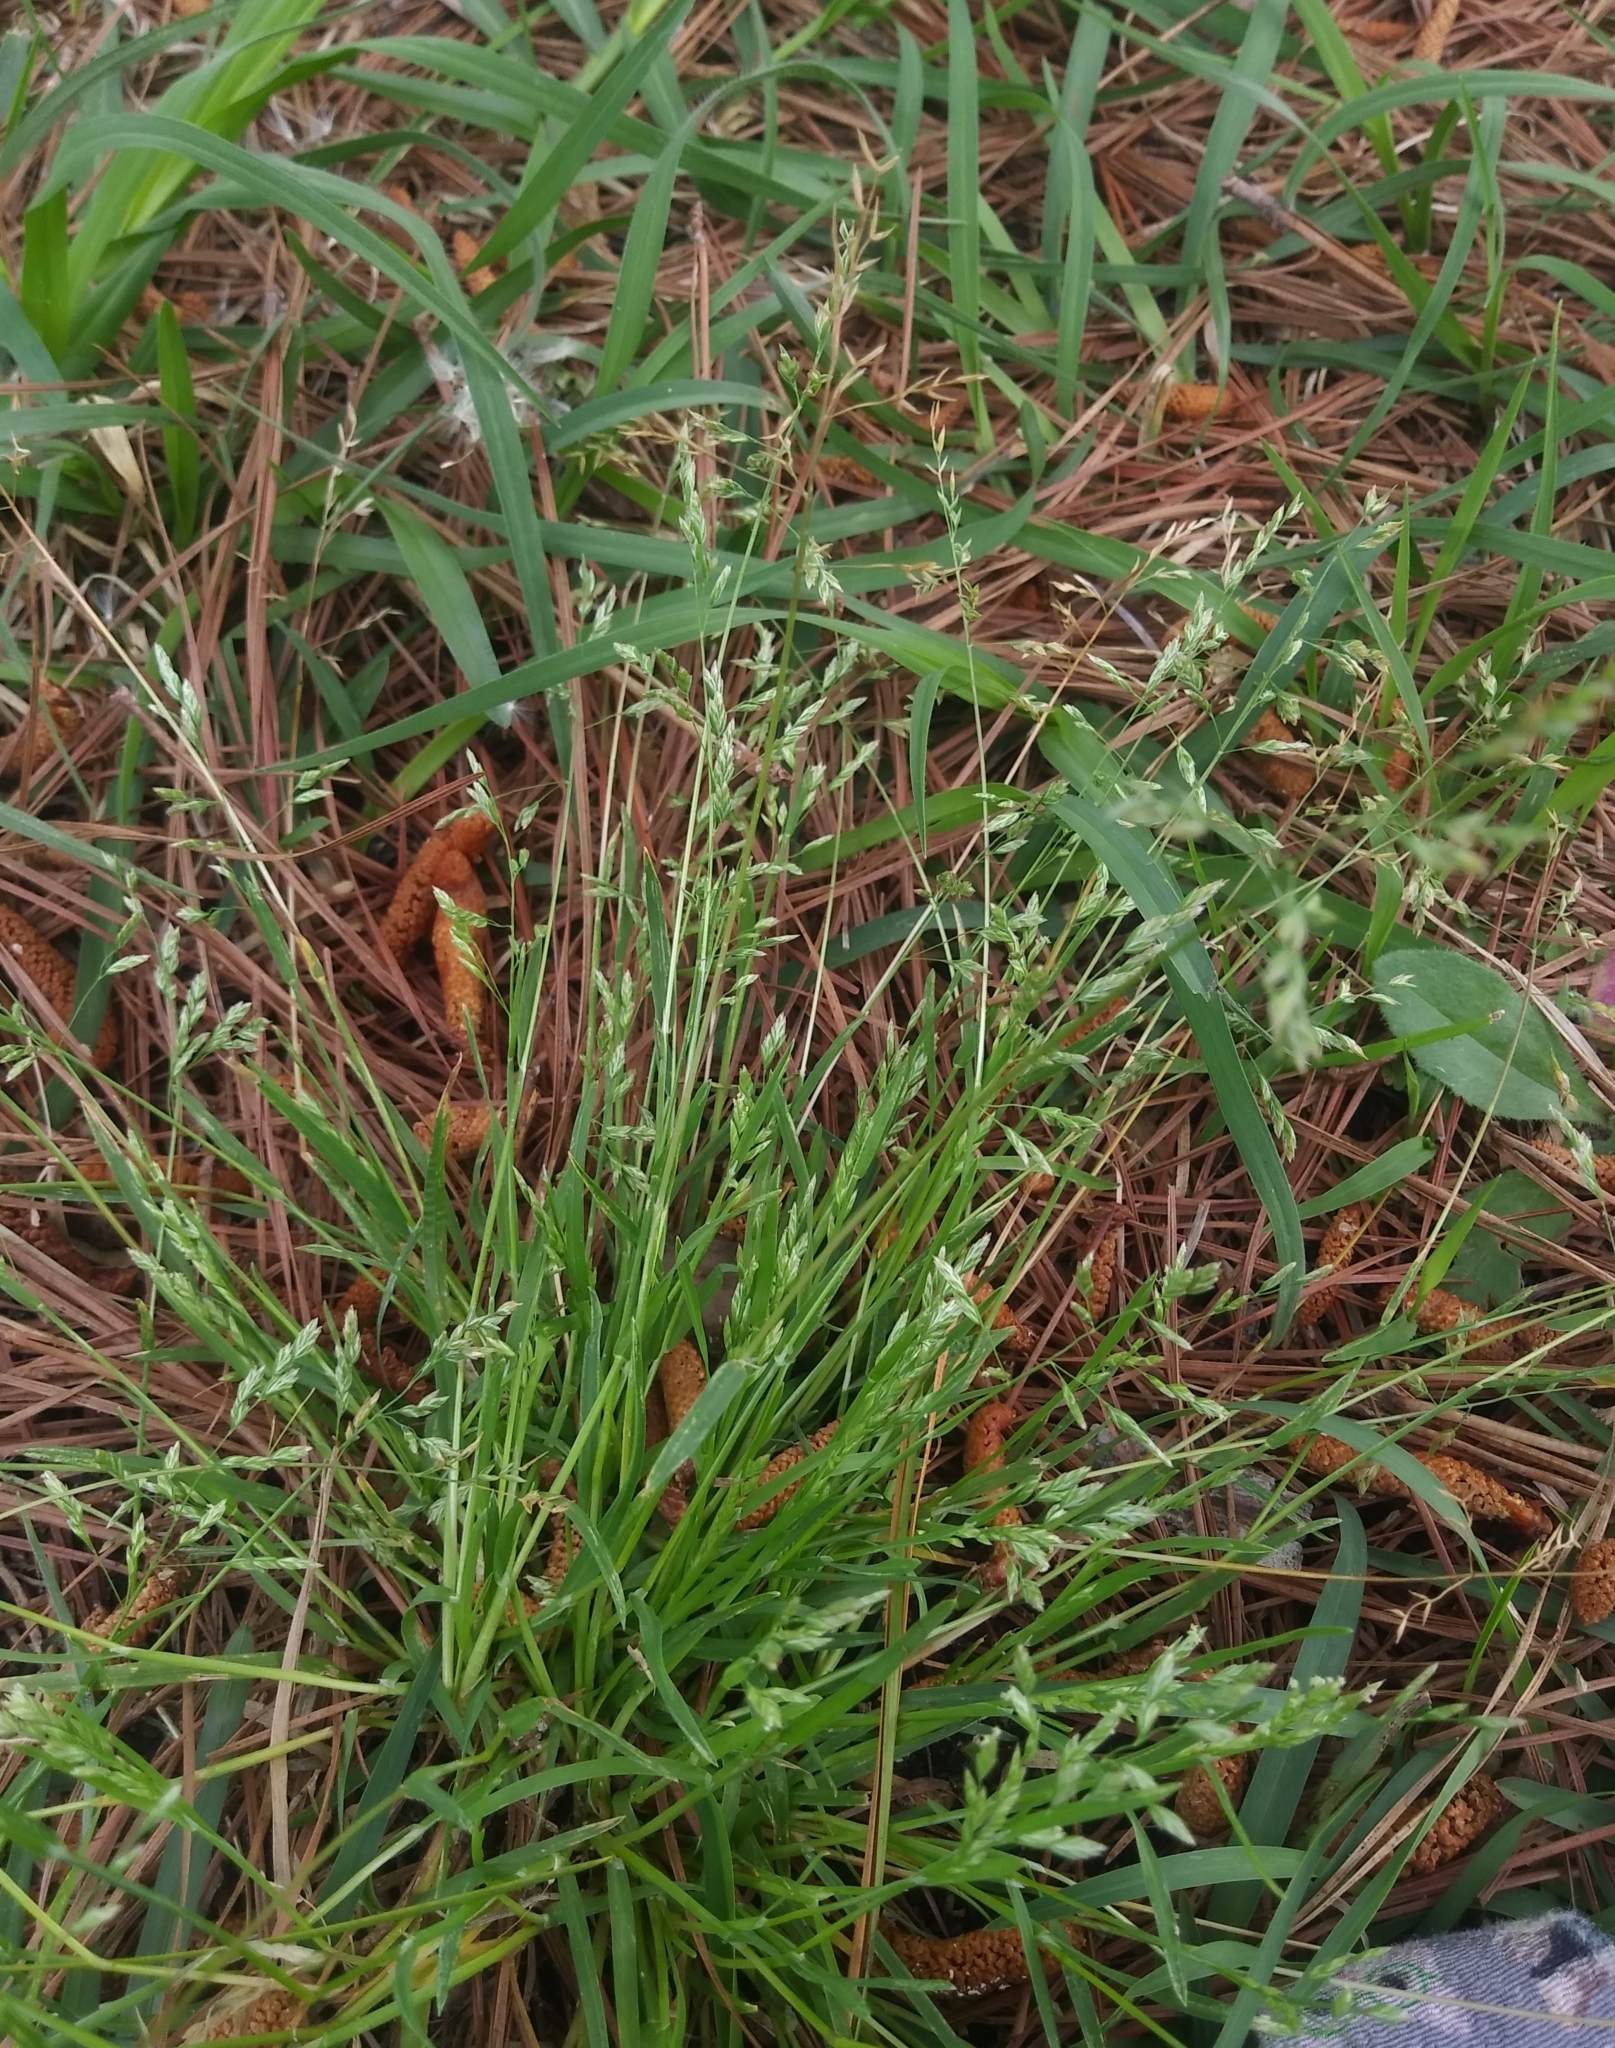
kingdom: Plantae
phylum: Tracheophyta
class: Liliopsida
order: Poales
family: Poaceae
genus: Poa
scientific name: Poa annua
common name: Annual bluegrass
